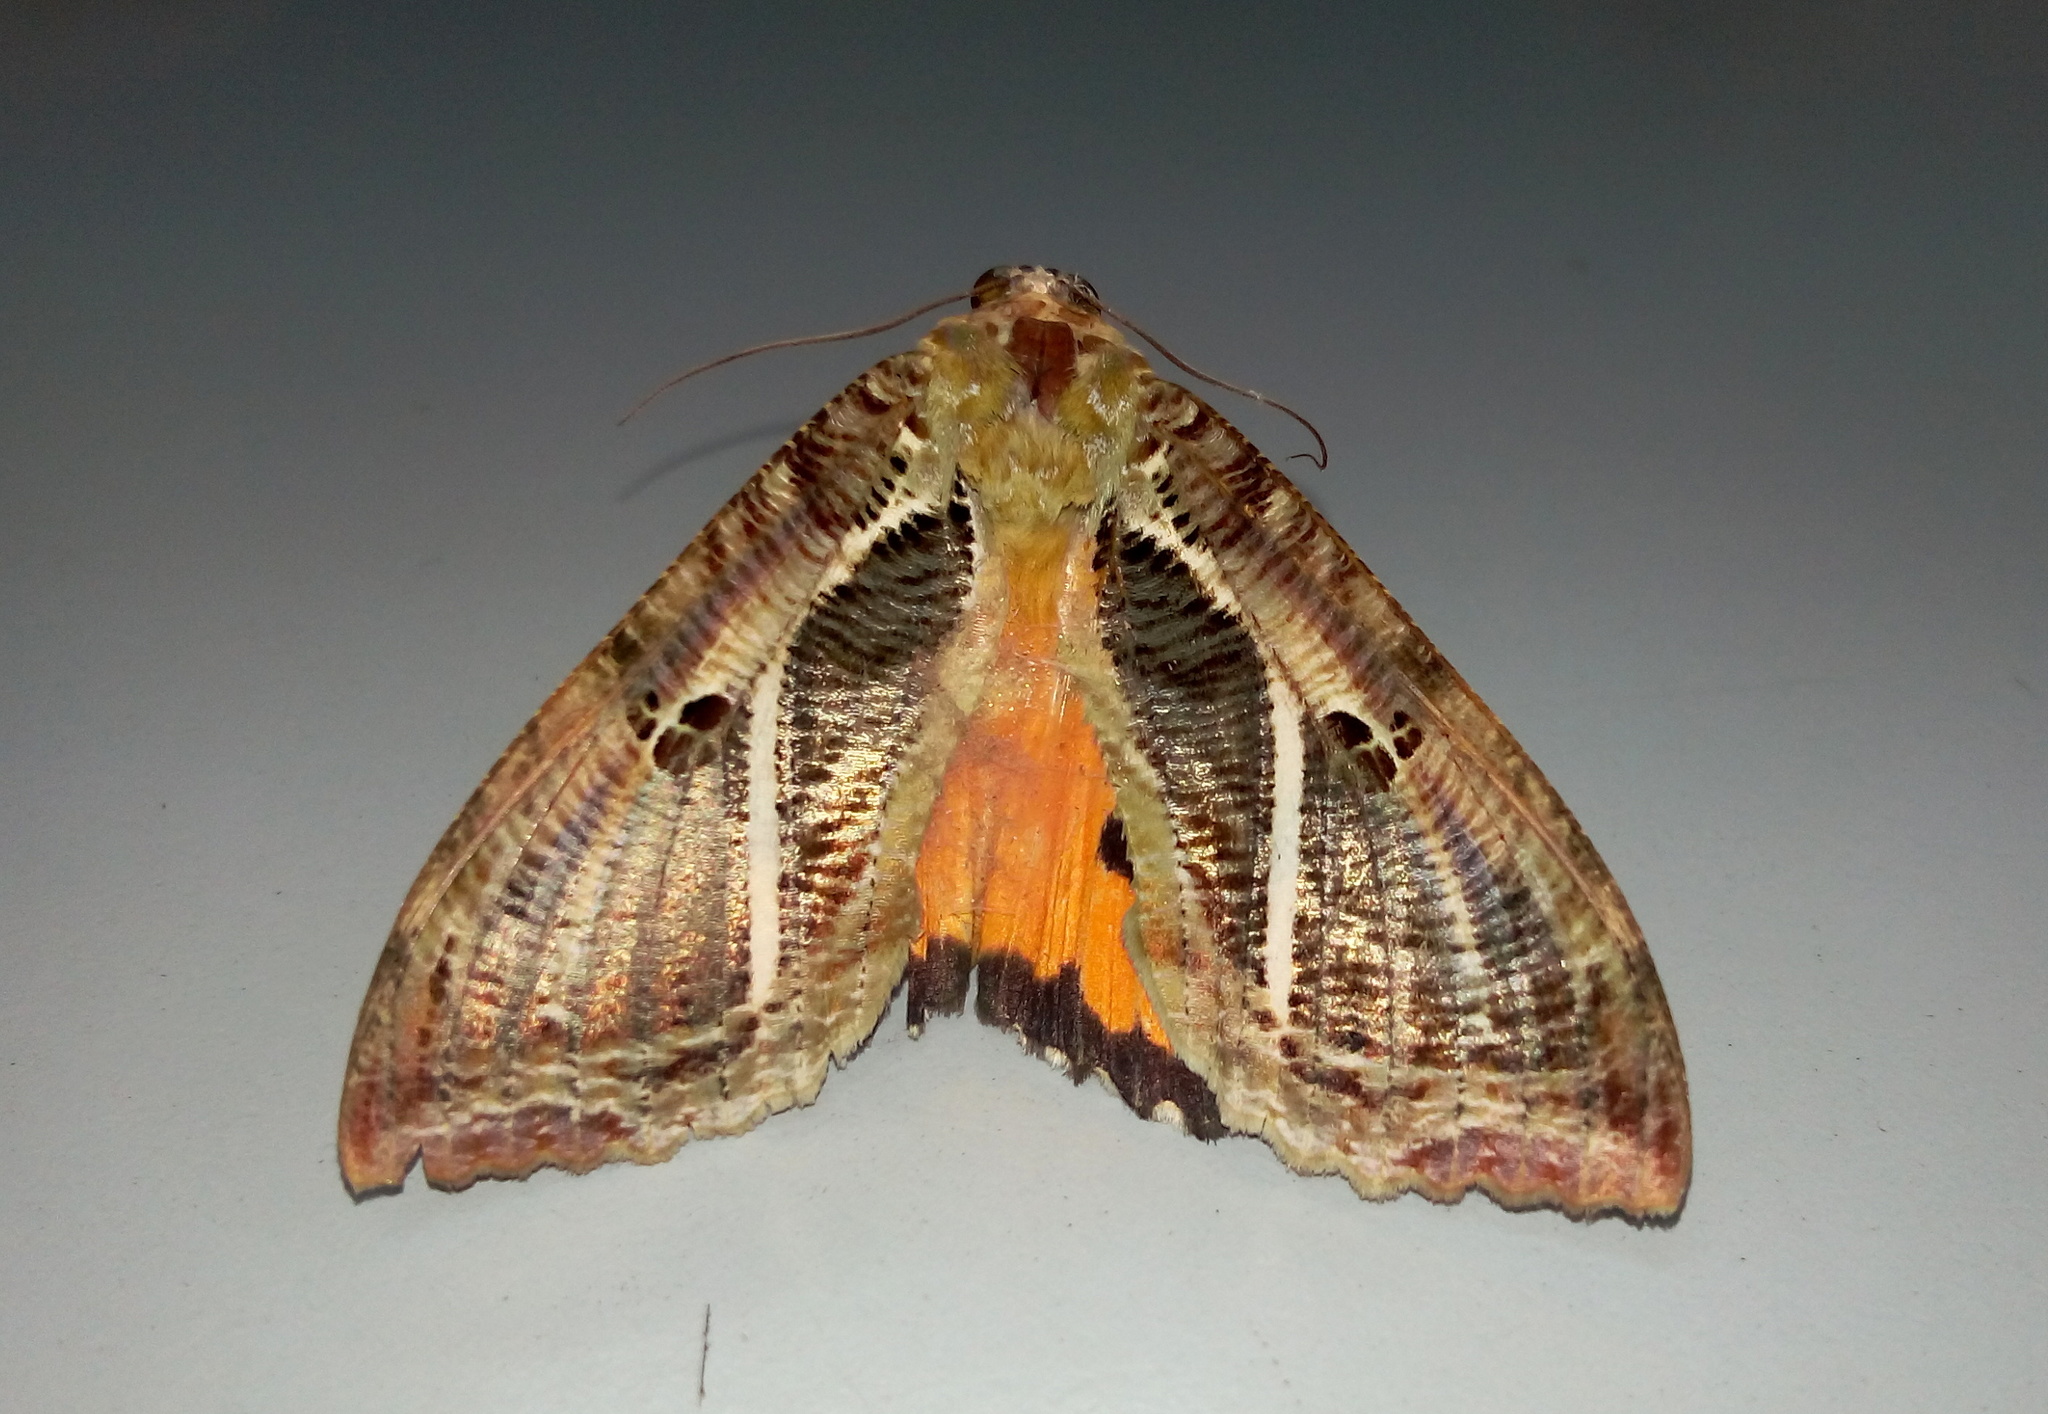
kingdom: Animalia
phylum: Arthropoda
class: Insecta
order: Lepidoptera
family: Erebidae
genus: Eudocima
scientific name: Eudocima materna
